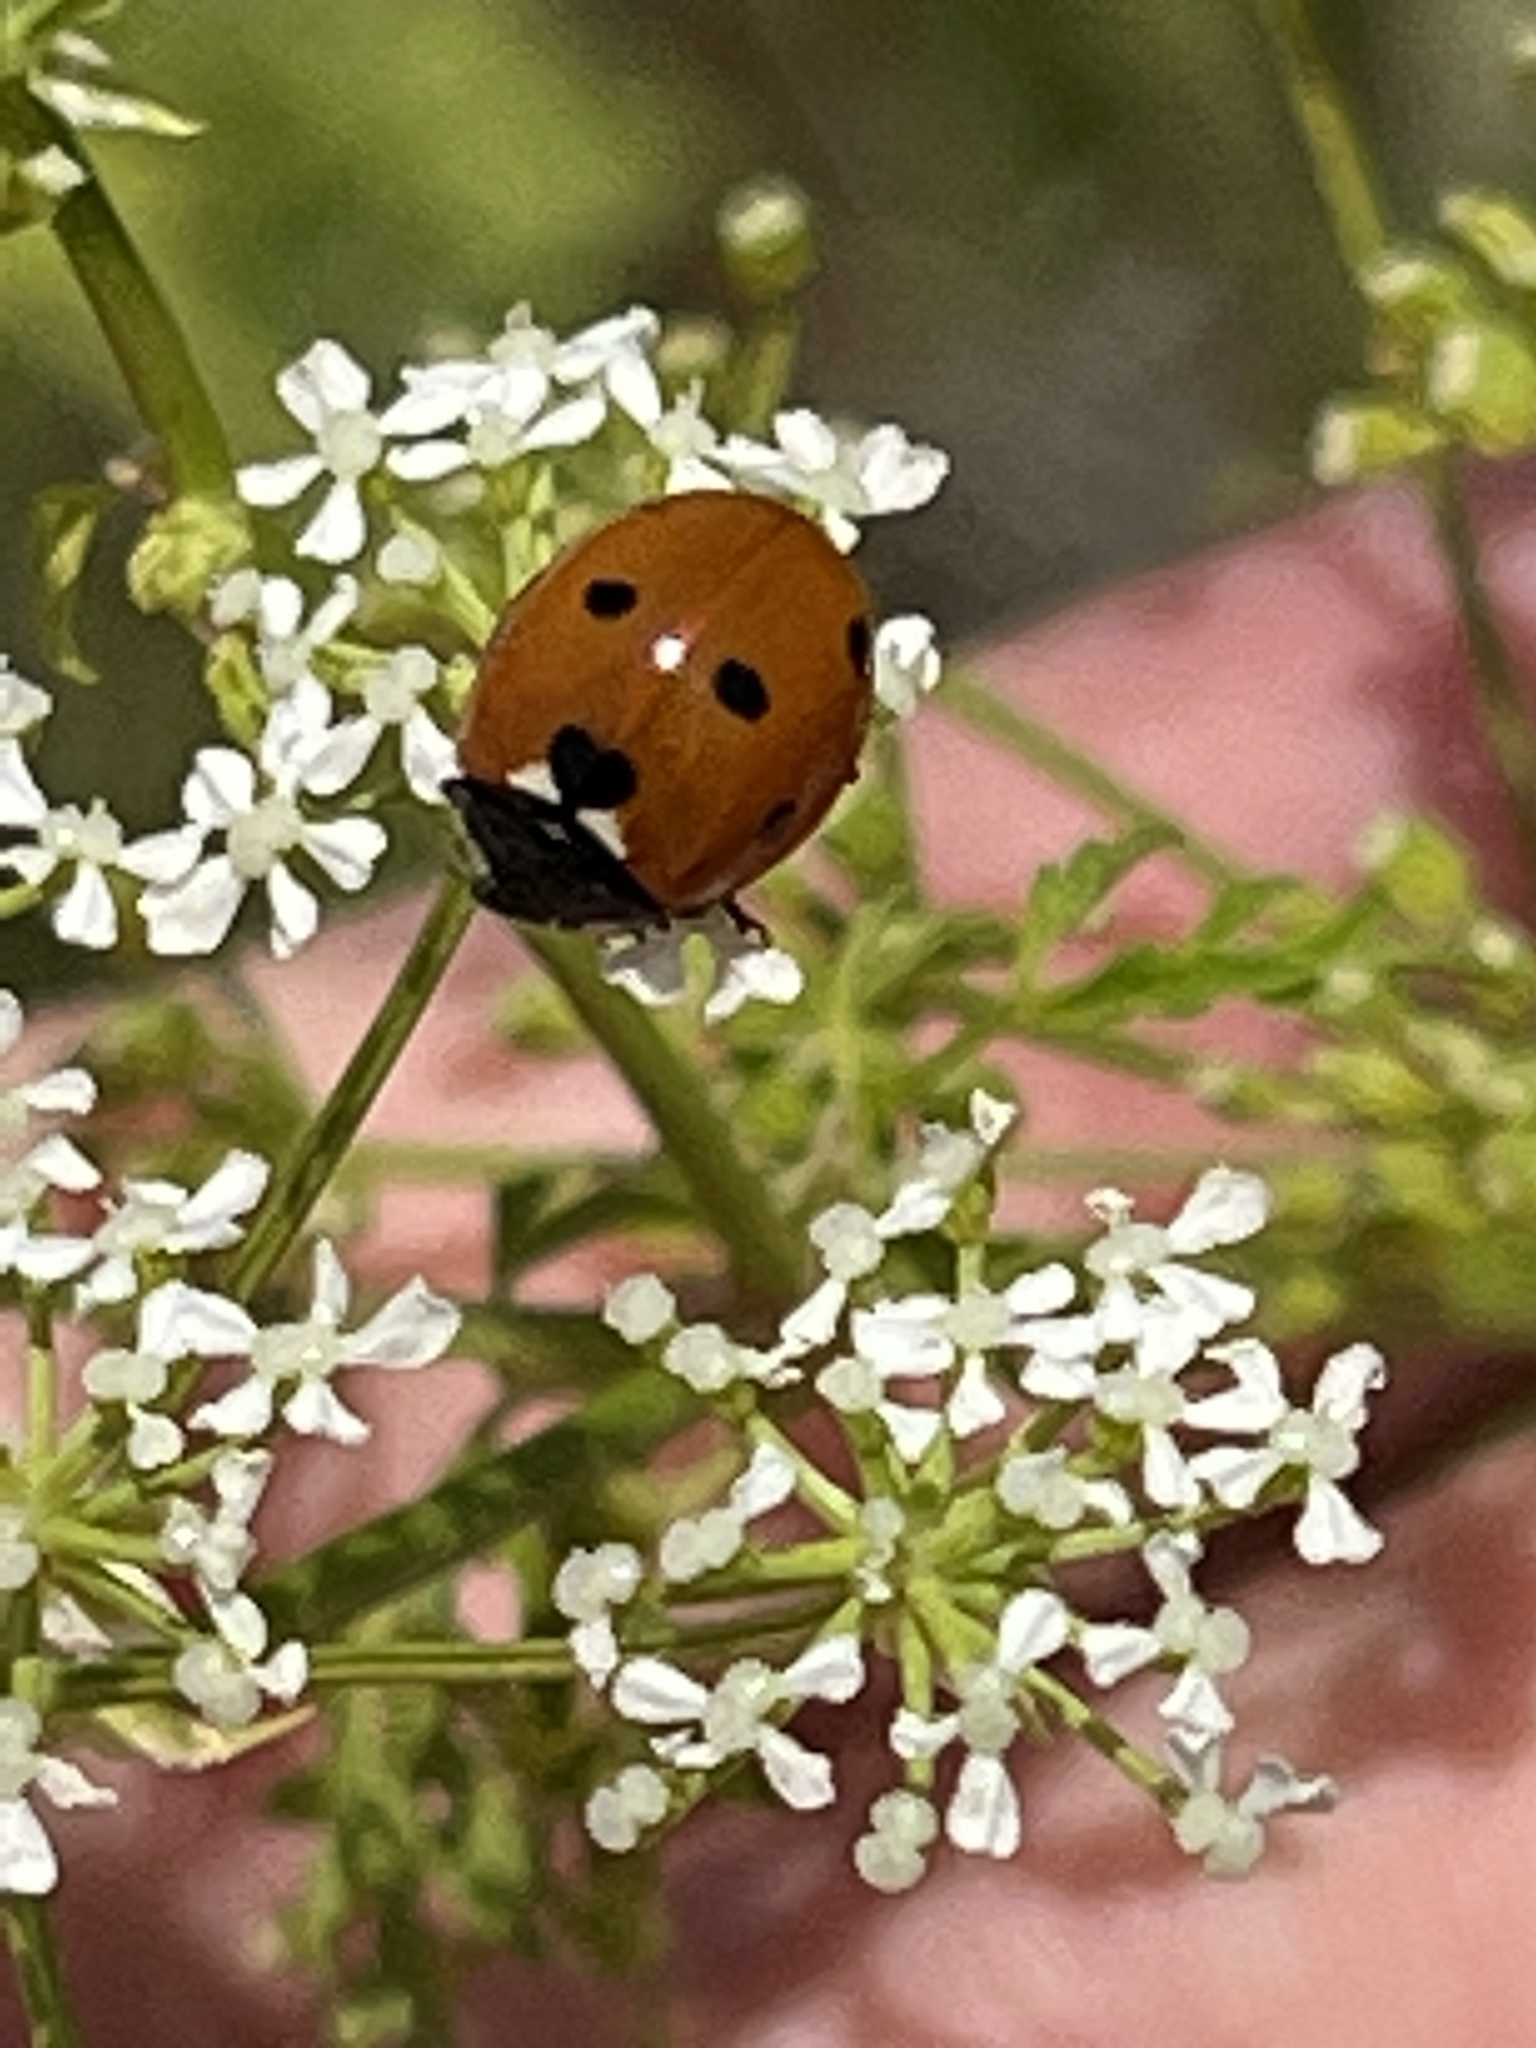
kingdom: Animalia
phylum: Arthropoda
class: Insecta
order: Coleoptera
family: Coccinellidae
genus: Coccinella
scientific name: Coccinella septempunctata
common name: Sevenspotted lady beetle
